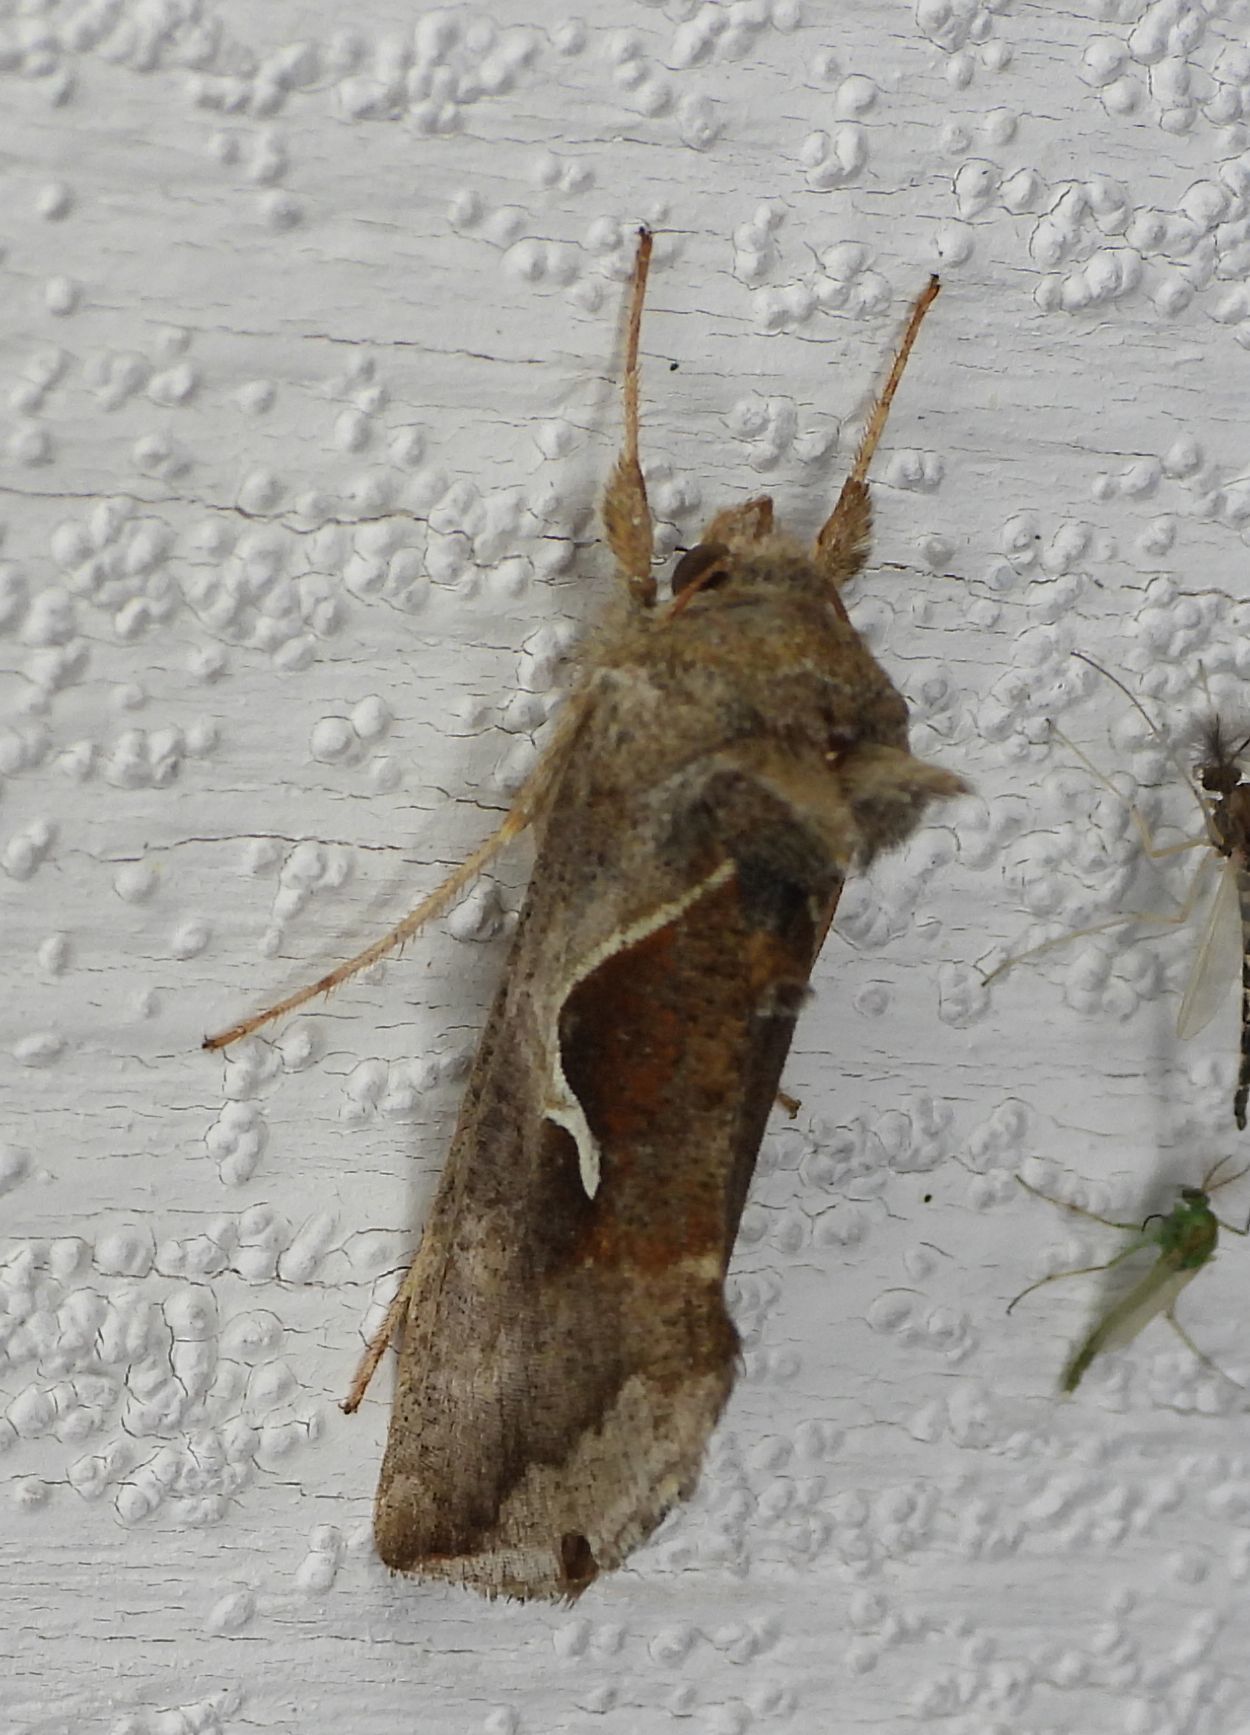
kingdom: Animalia
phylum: Arthropoda
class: Insecta
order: Lepidoptera
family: Noctuidae
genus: Anagrapha
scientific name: Anagrapha falcifera
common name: Celery looper
